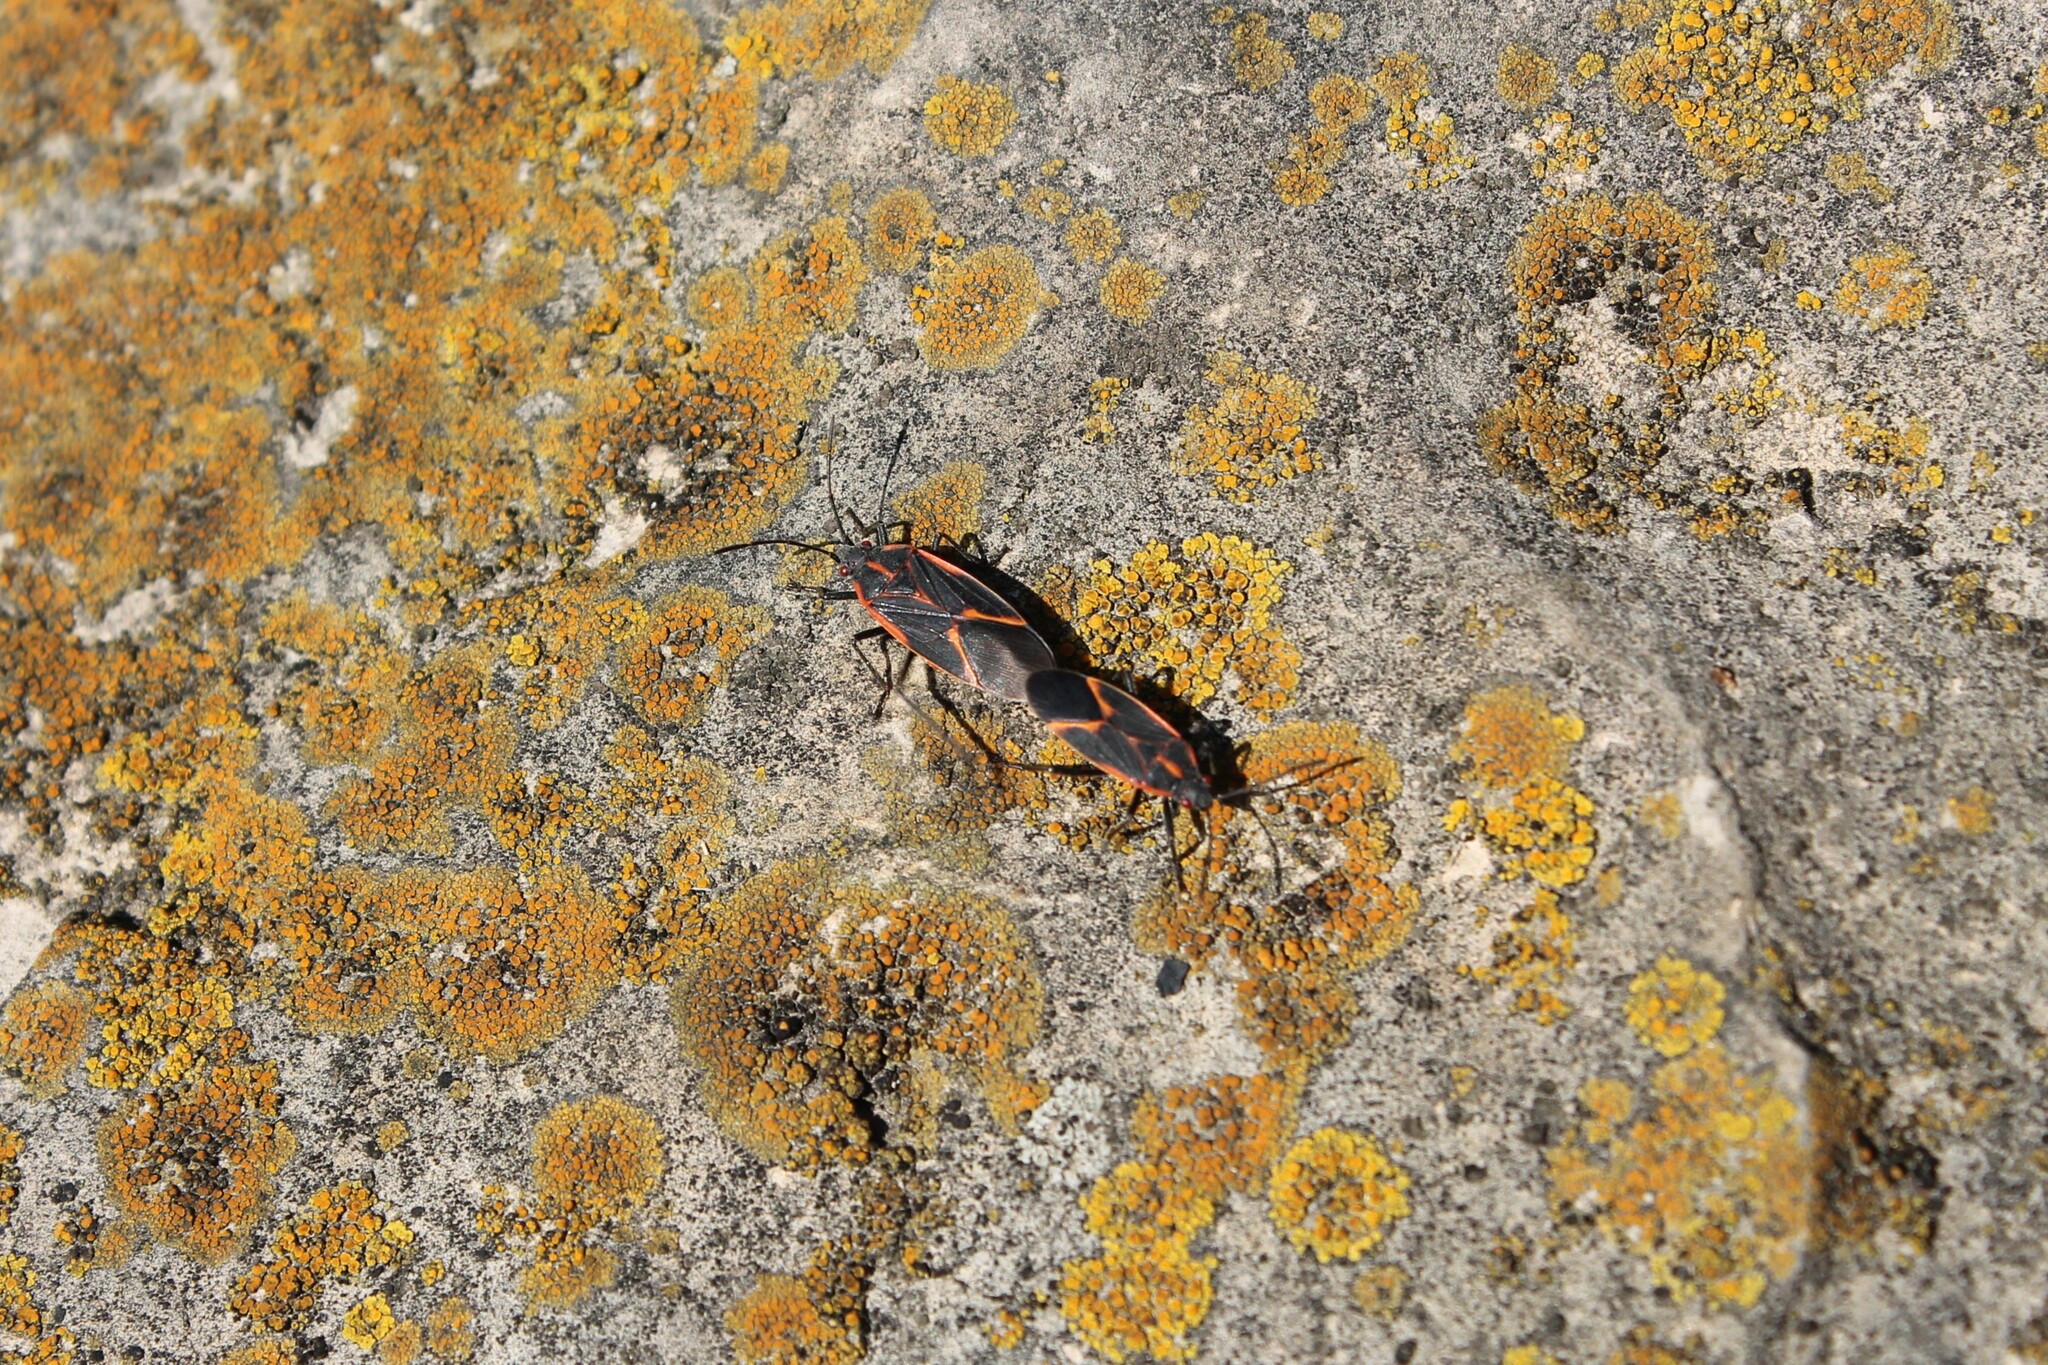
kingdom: Animalia
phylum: Arthropoda
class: Insecta
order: Hemiptera
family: Rhopalidae
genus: Boisea
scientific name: Boisea trivittata
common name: Boxelder bug
